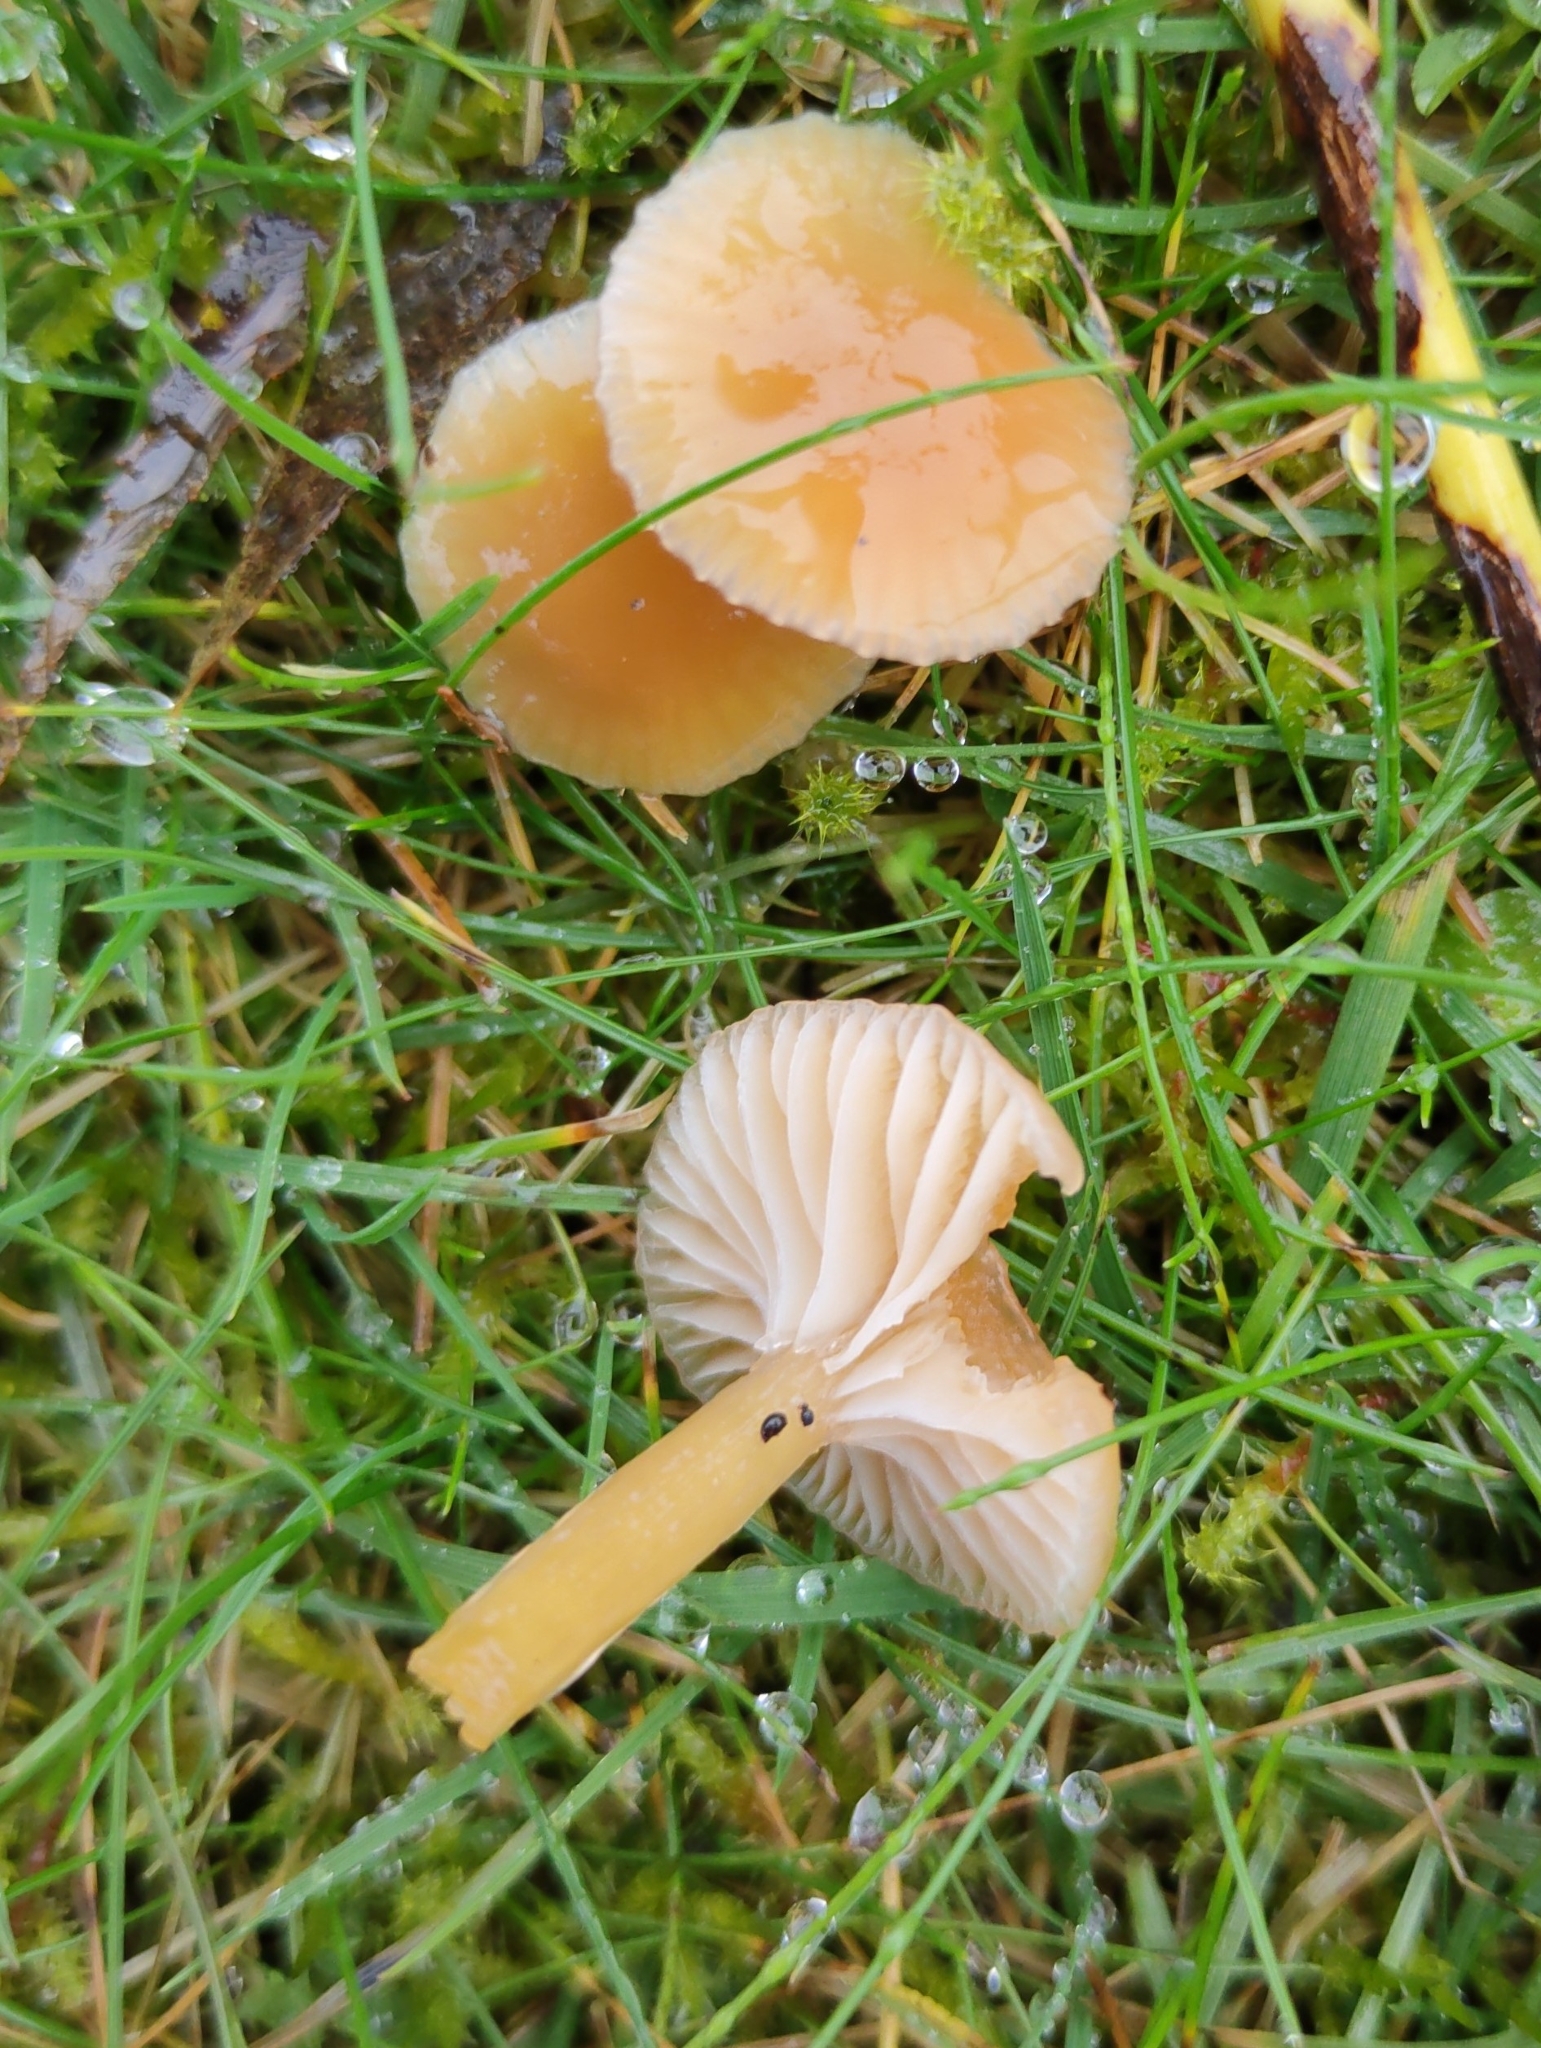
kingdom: Fungi
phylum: Basidiomycota
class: Agaricomycetes
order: Agaricales
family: Hygrophoraceae
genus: Gliophorus
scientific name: Gliophorus laetus
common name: Heath waxcap
